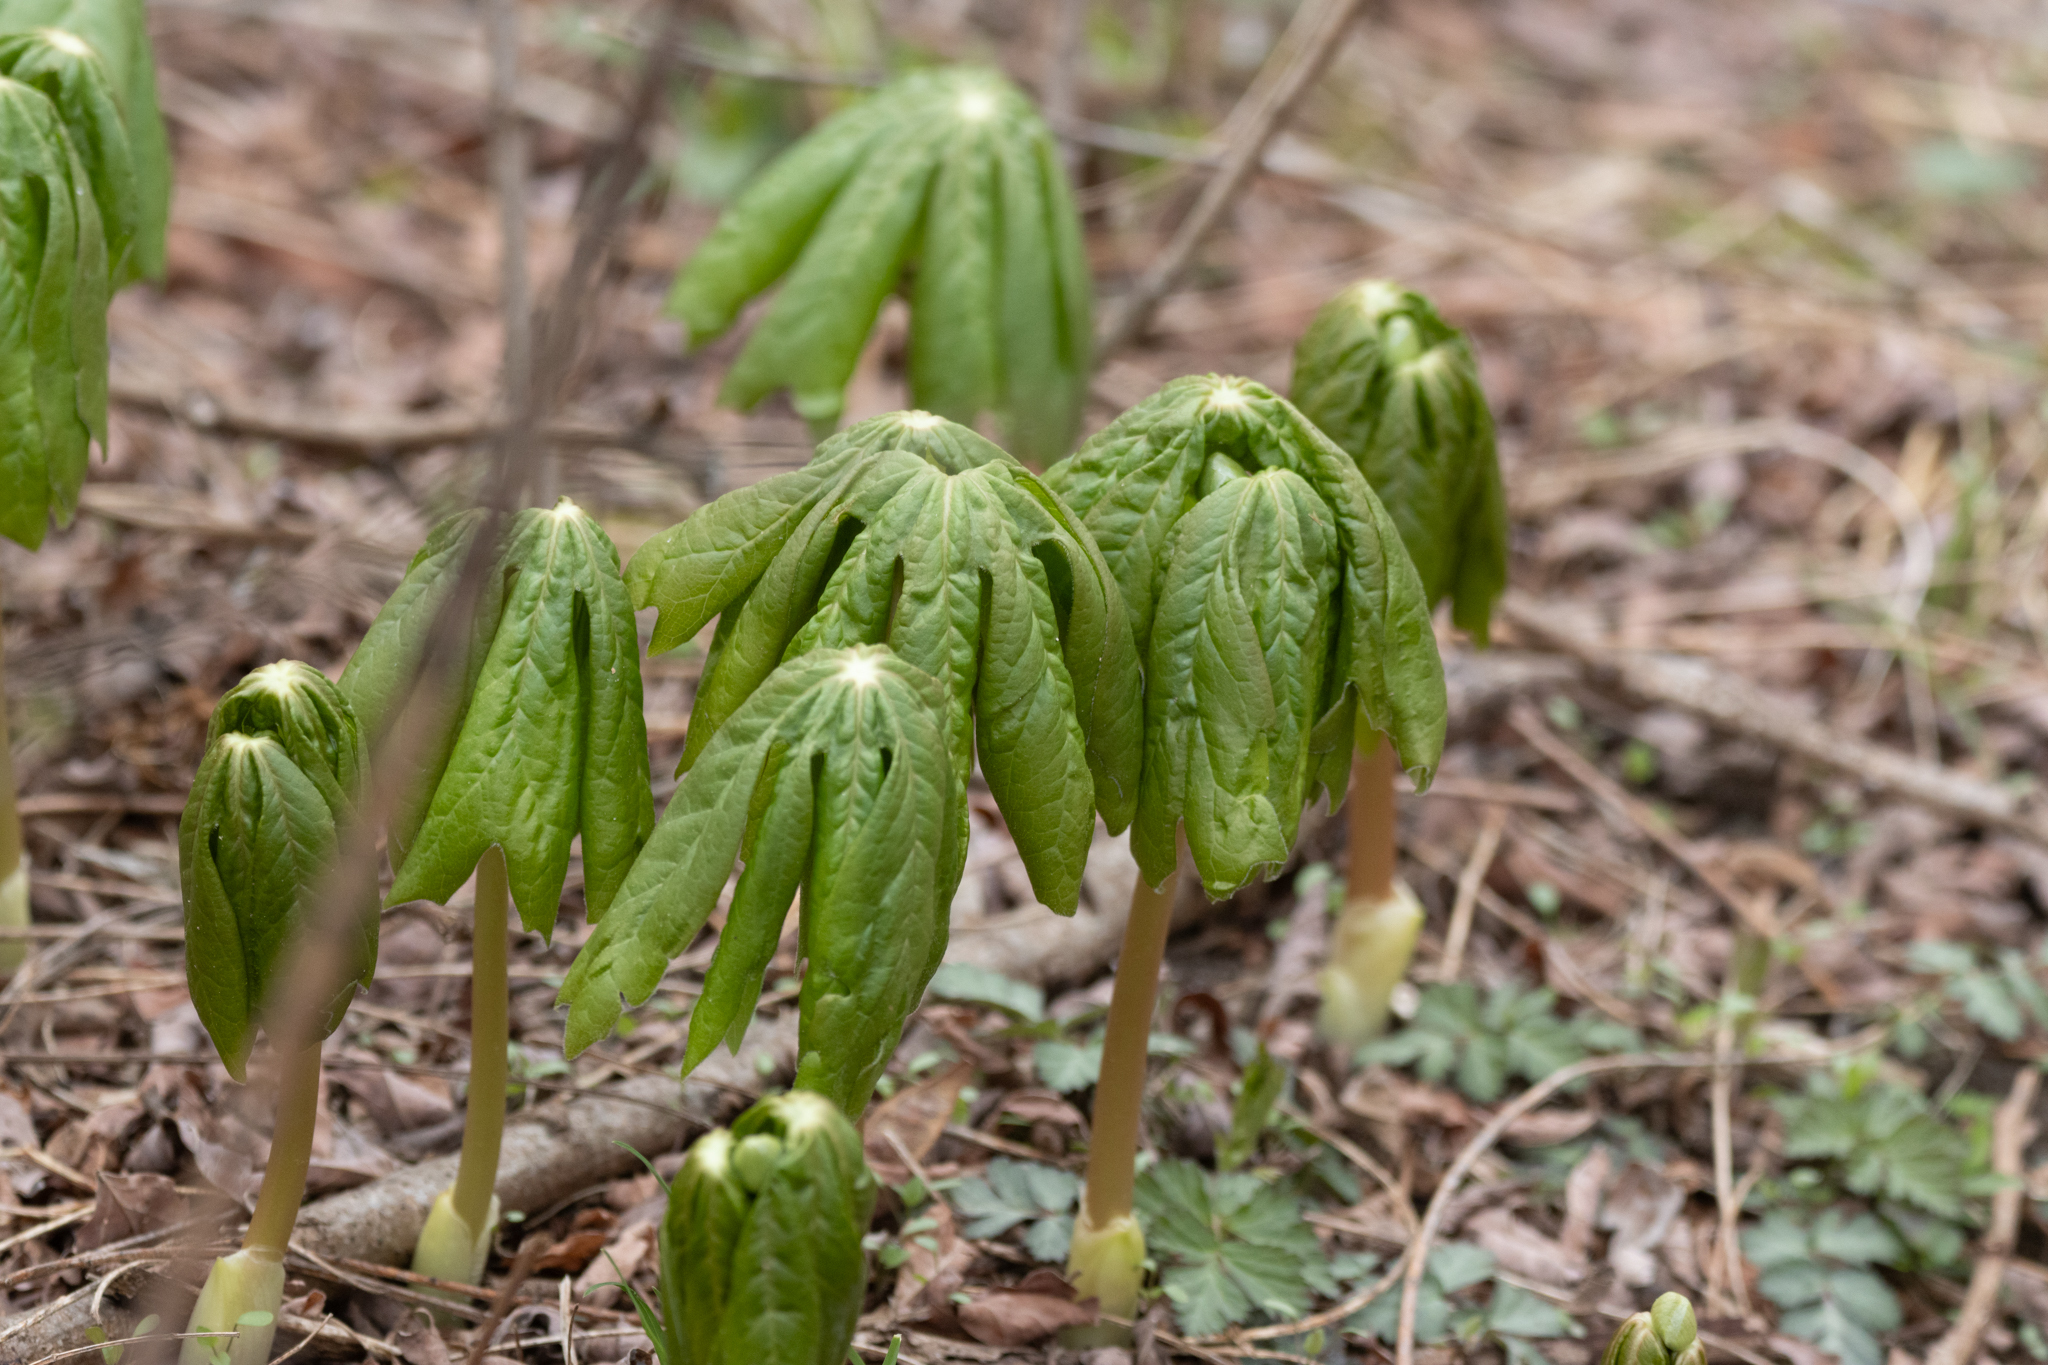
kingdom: Plantae
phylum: Tracheophyta
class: Magnoliopsida
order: Ranunculales
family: Berberidaceae
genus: Podophyllum
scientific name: Podophyllum peltatum
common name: Wild mandrake
